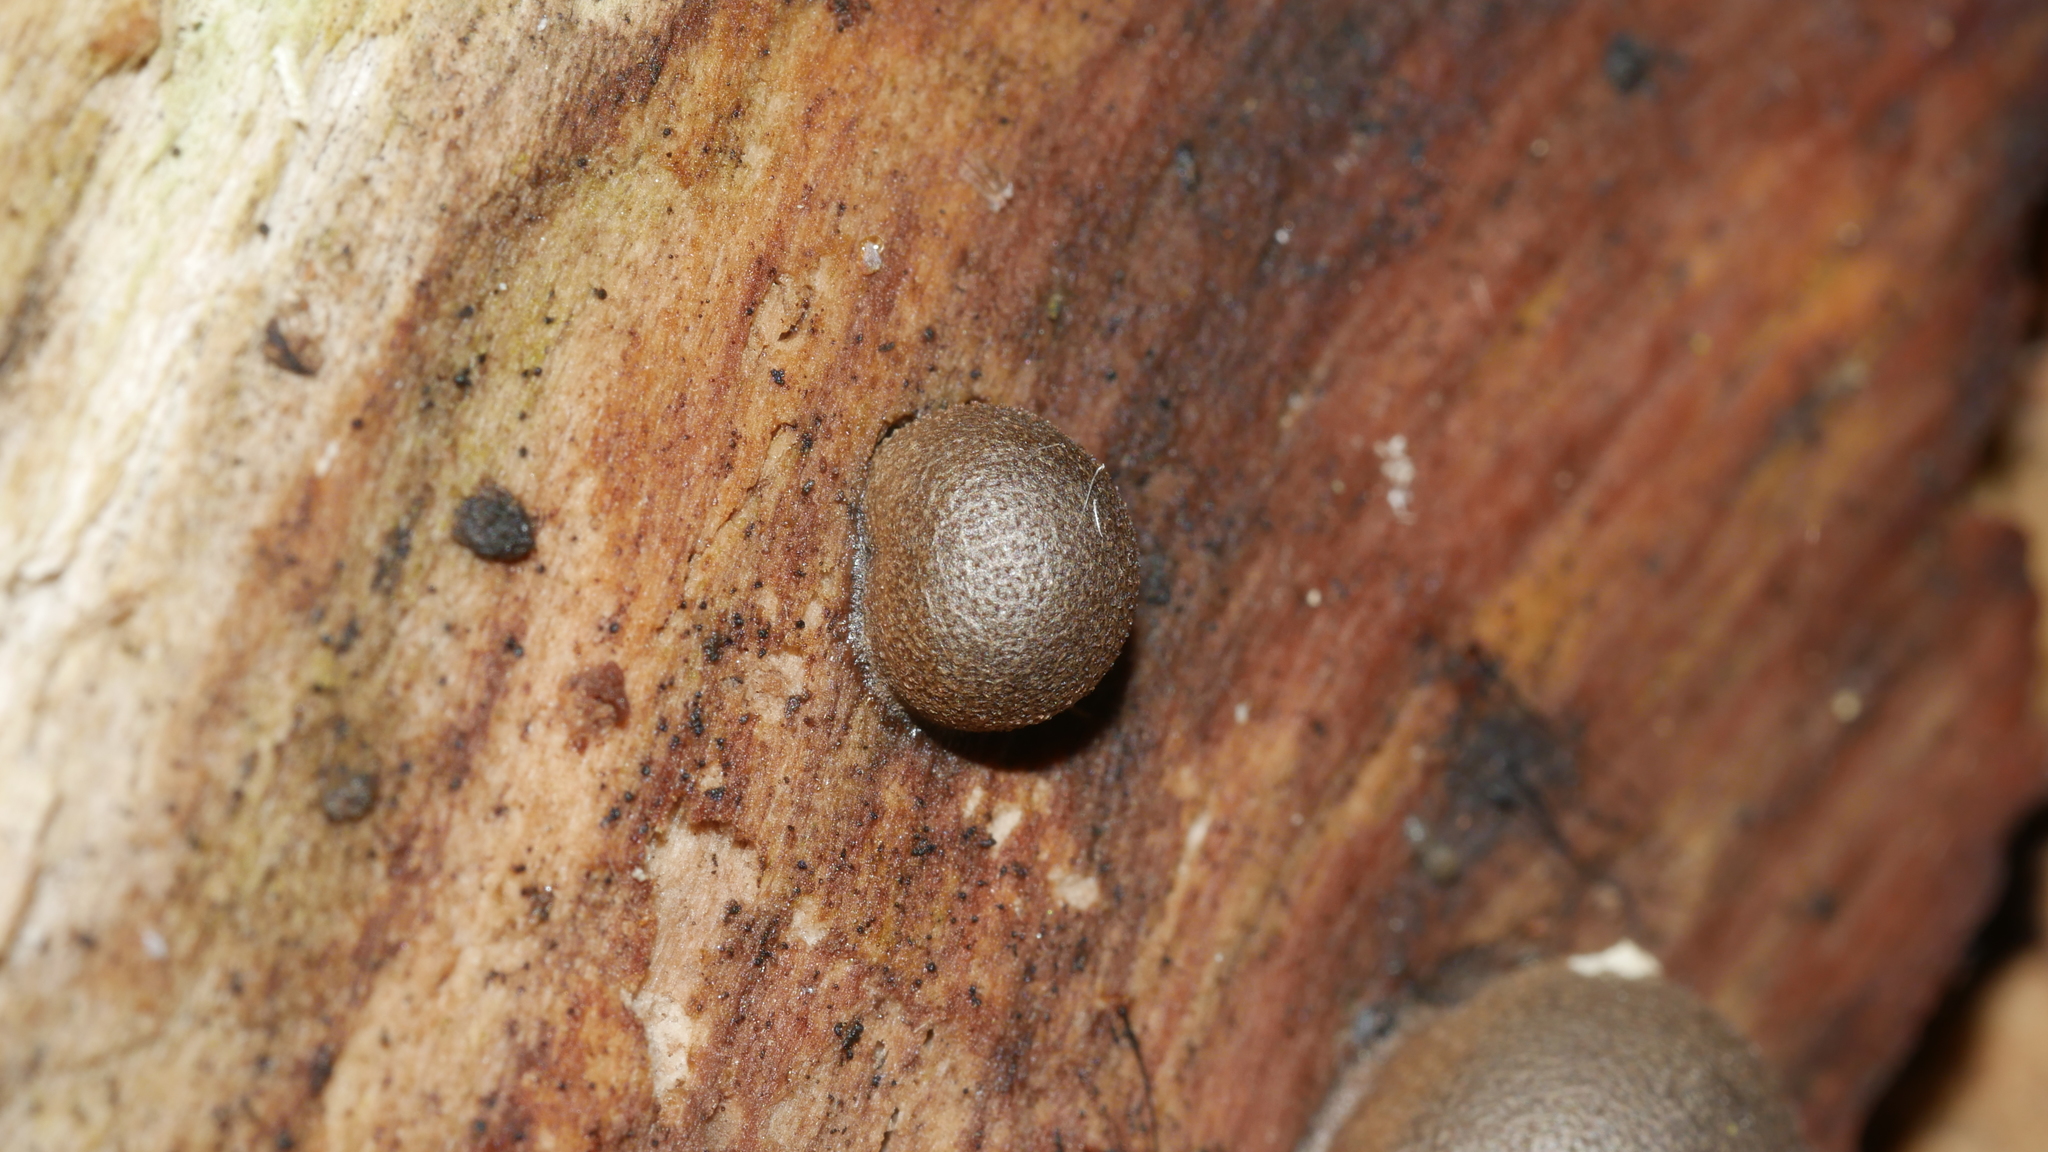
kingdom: Protozoa
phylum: Mycetozoa
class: Myxomycetes
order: Cribrariales
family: Tubiferaceae
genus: Lycogala
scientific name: Lycogala epidendrum
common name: Wolf's milk
